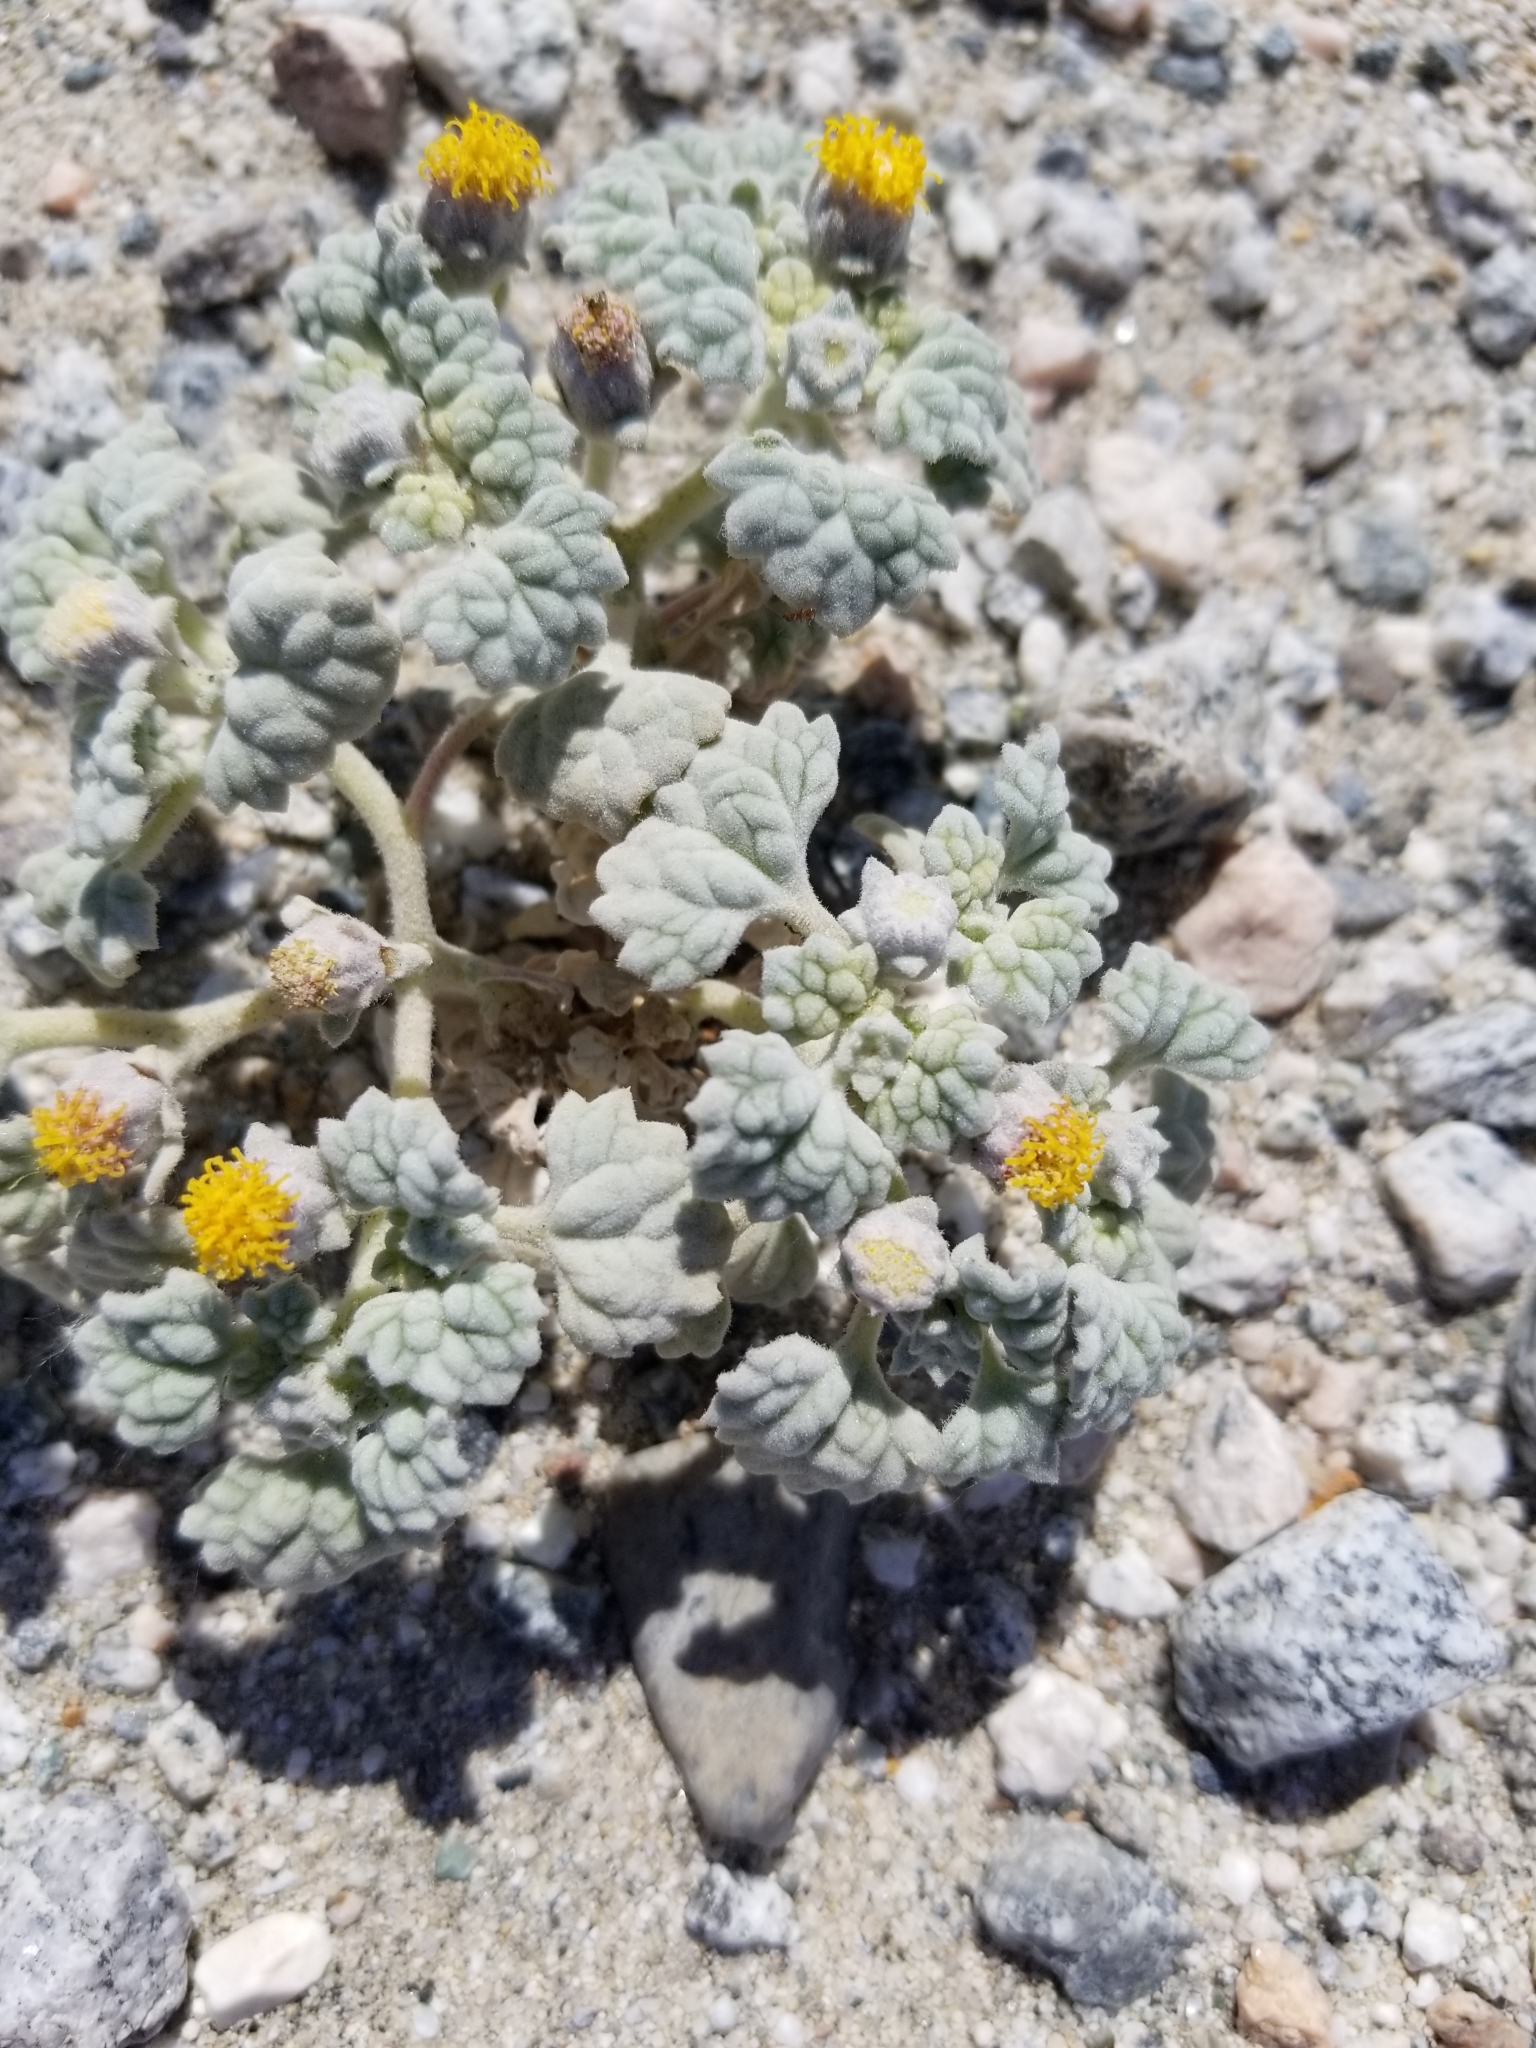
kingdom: Plantae
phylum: Tracheophyta
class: Magnoliopsida
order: Asterales
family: Asteraceae
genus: Psathyrotes
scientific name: Psathyrotes ramosissima
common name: Turtleback
